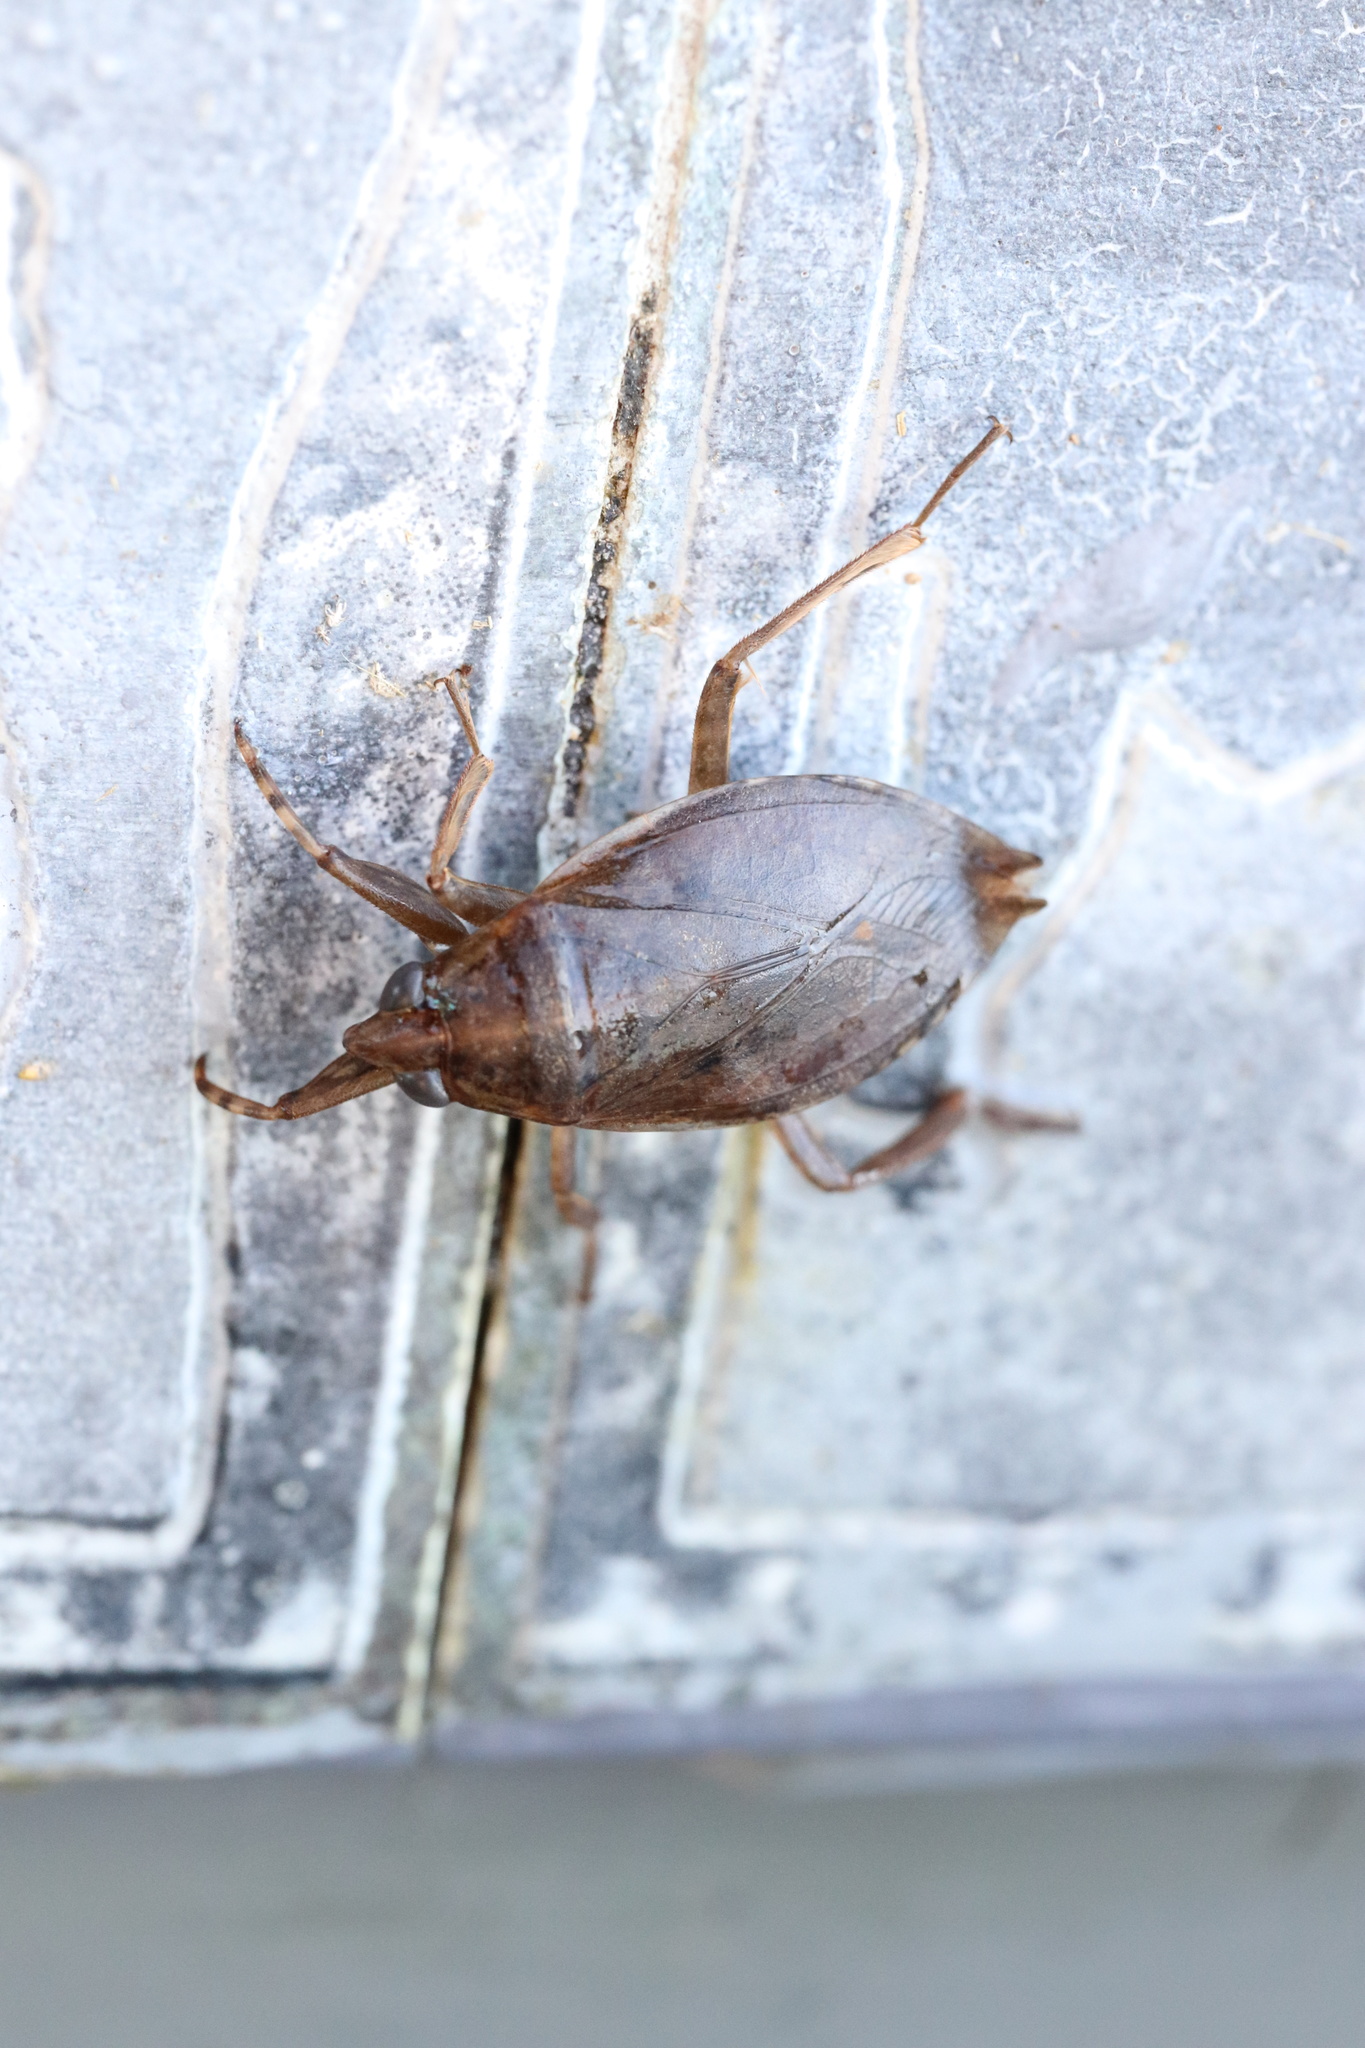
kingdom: Animalia
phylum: Arthropoda
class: Insecta
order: Hemiptera
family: Belostomatidae
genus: Belostoma
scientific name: Belostoma elegans
